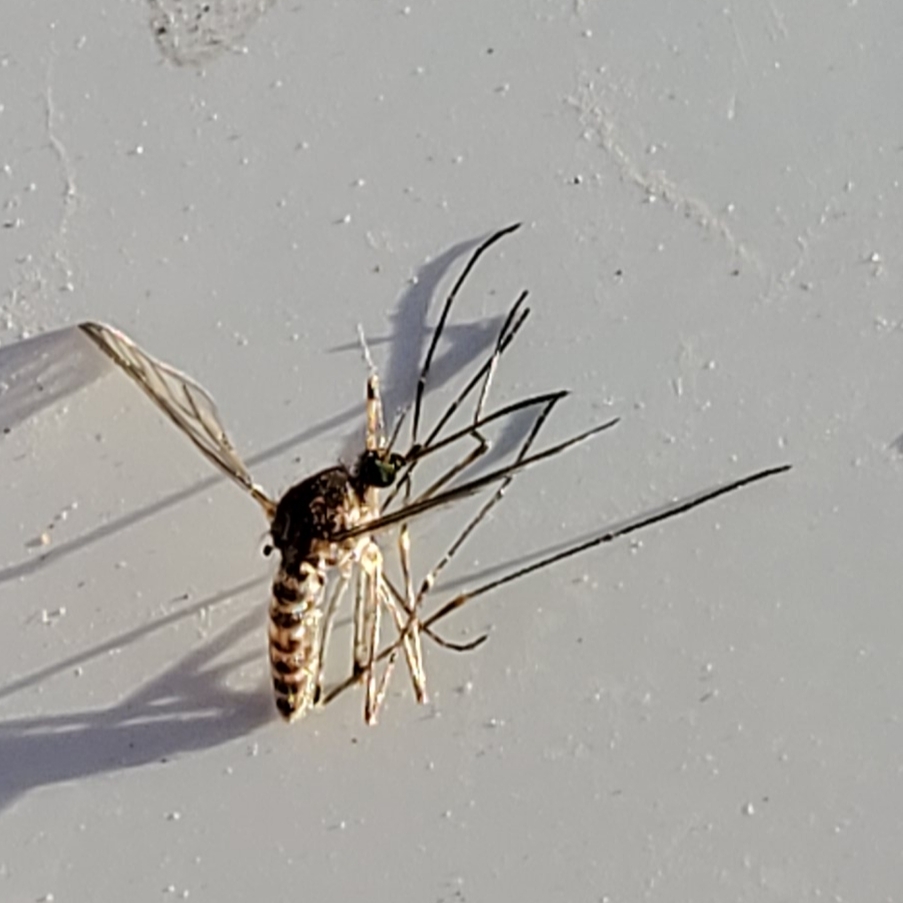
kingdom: Animalia
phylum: Arthropoda
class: Insecta
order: Diptera
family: Culicidae
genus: Culiseta
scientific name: Culiseta incidens
